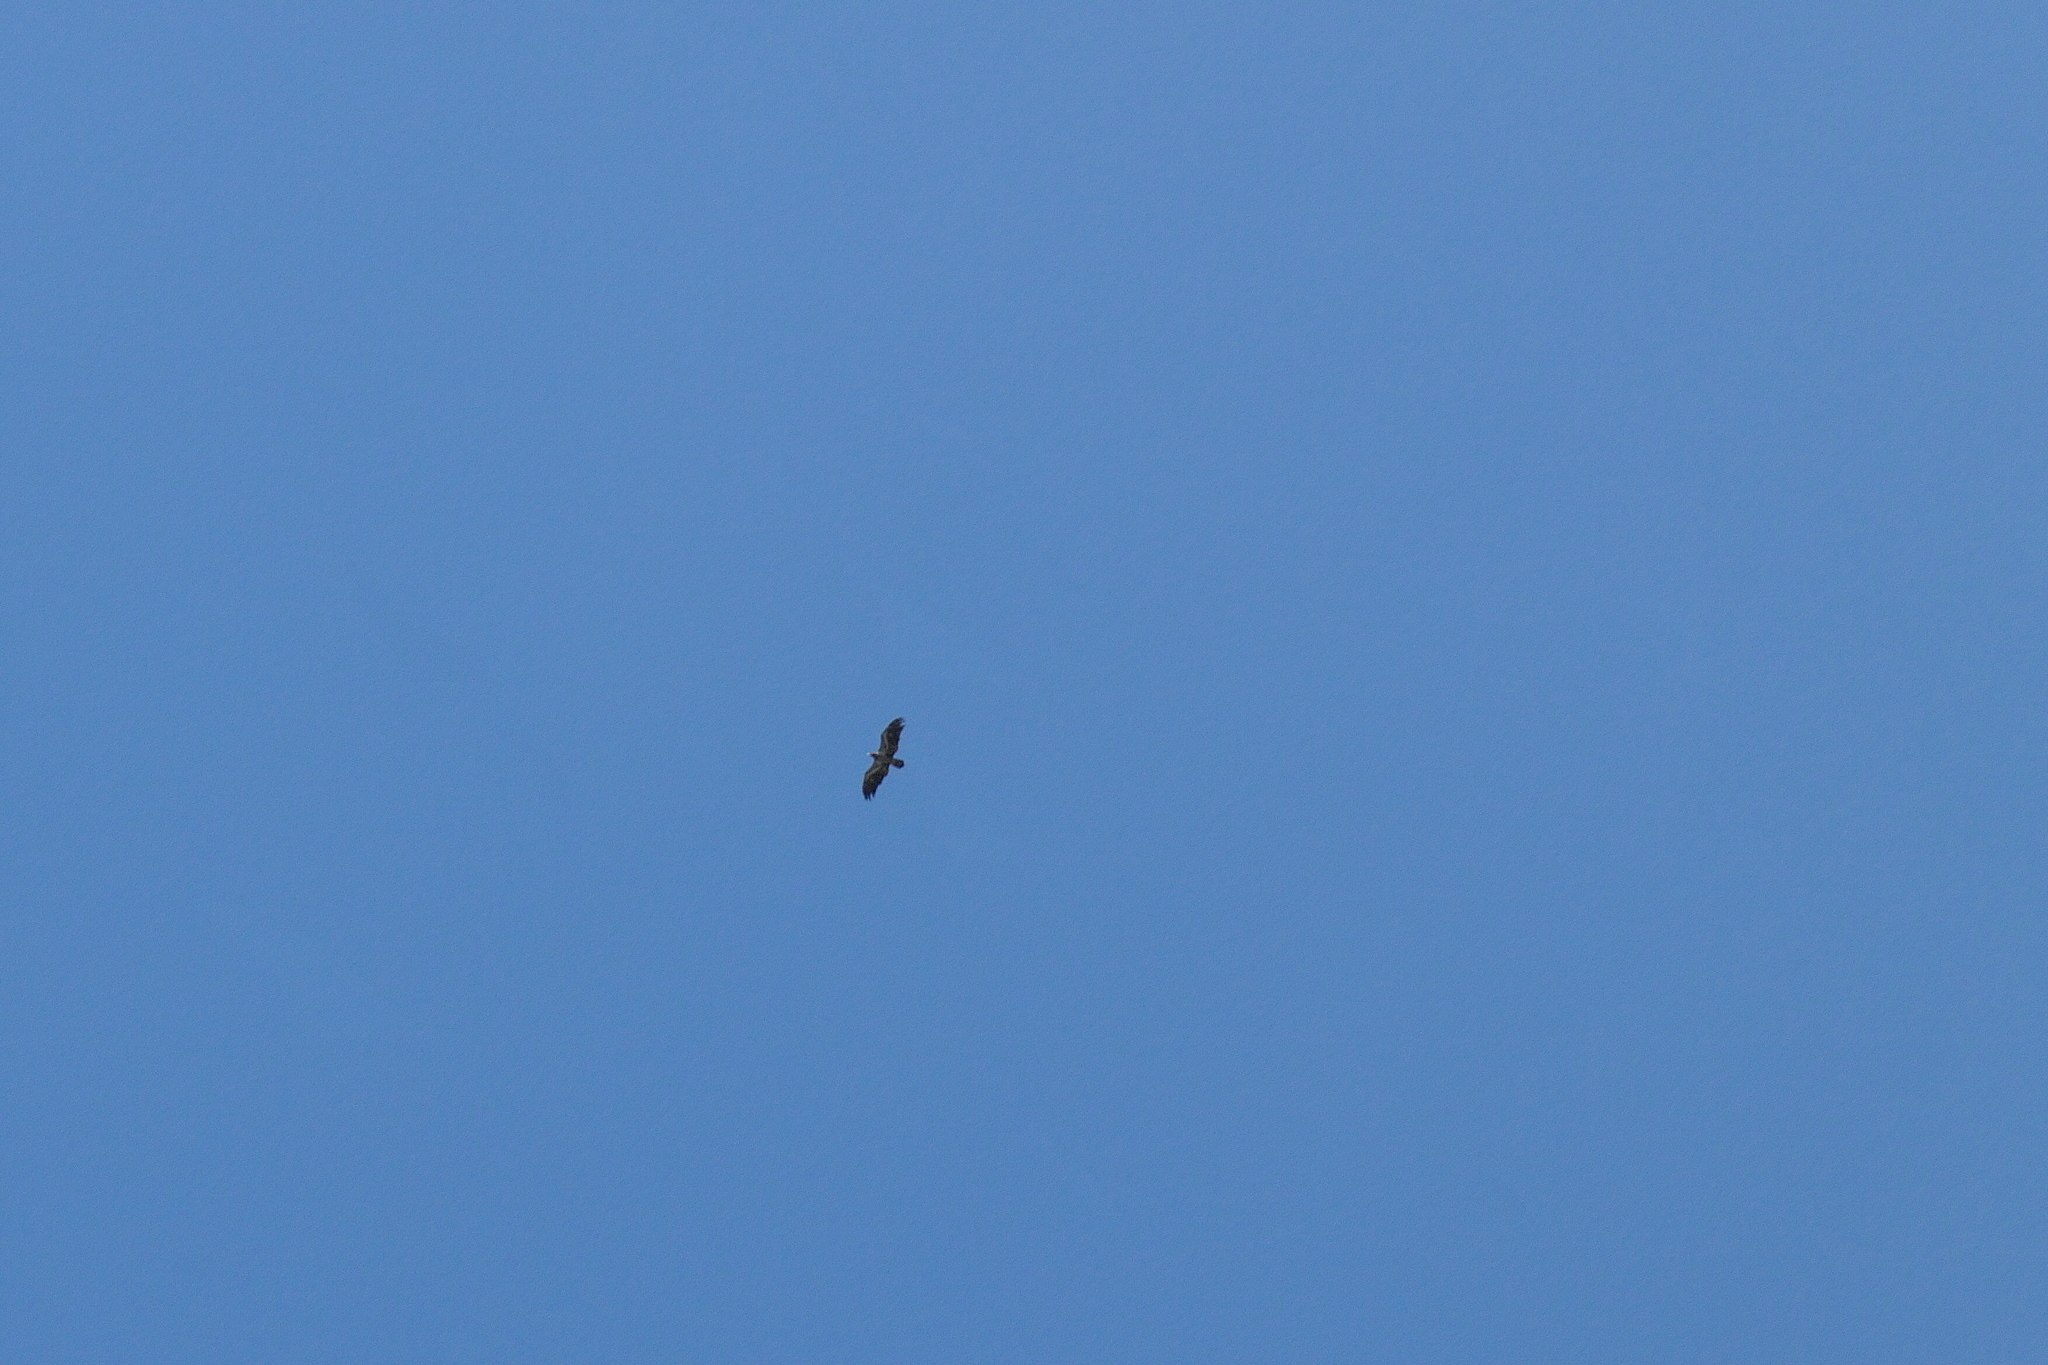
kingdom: Animalia
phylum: Chordata
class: Aves
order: Accipitriformes
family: Accipitridae
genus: Haliaeetus
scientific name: Haliaeetus leucocephalus
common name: Bald eagle
